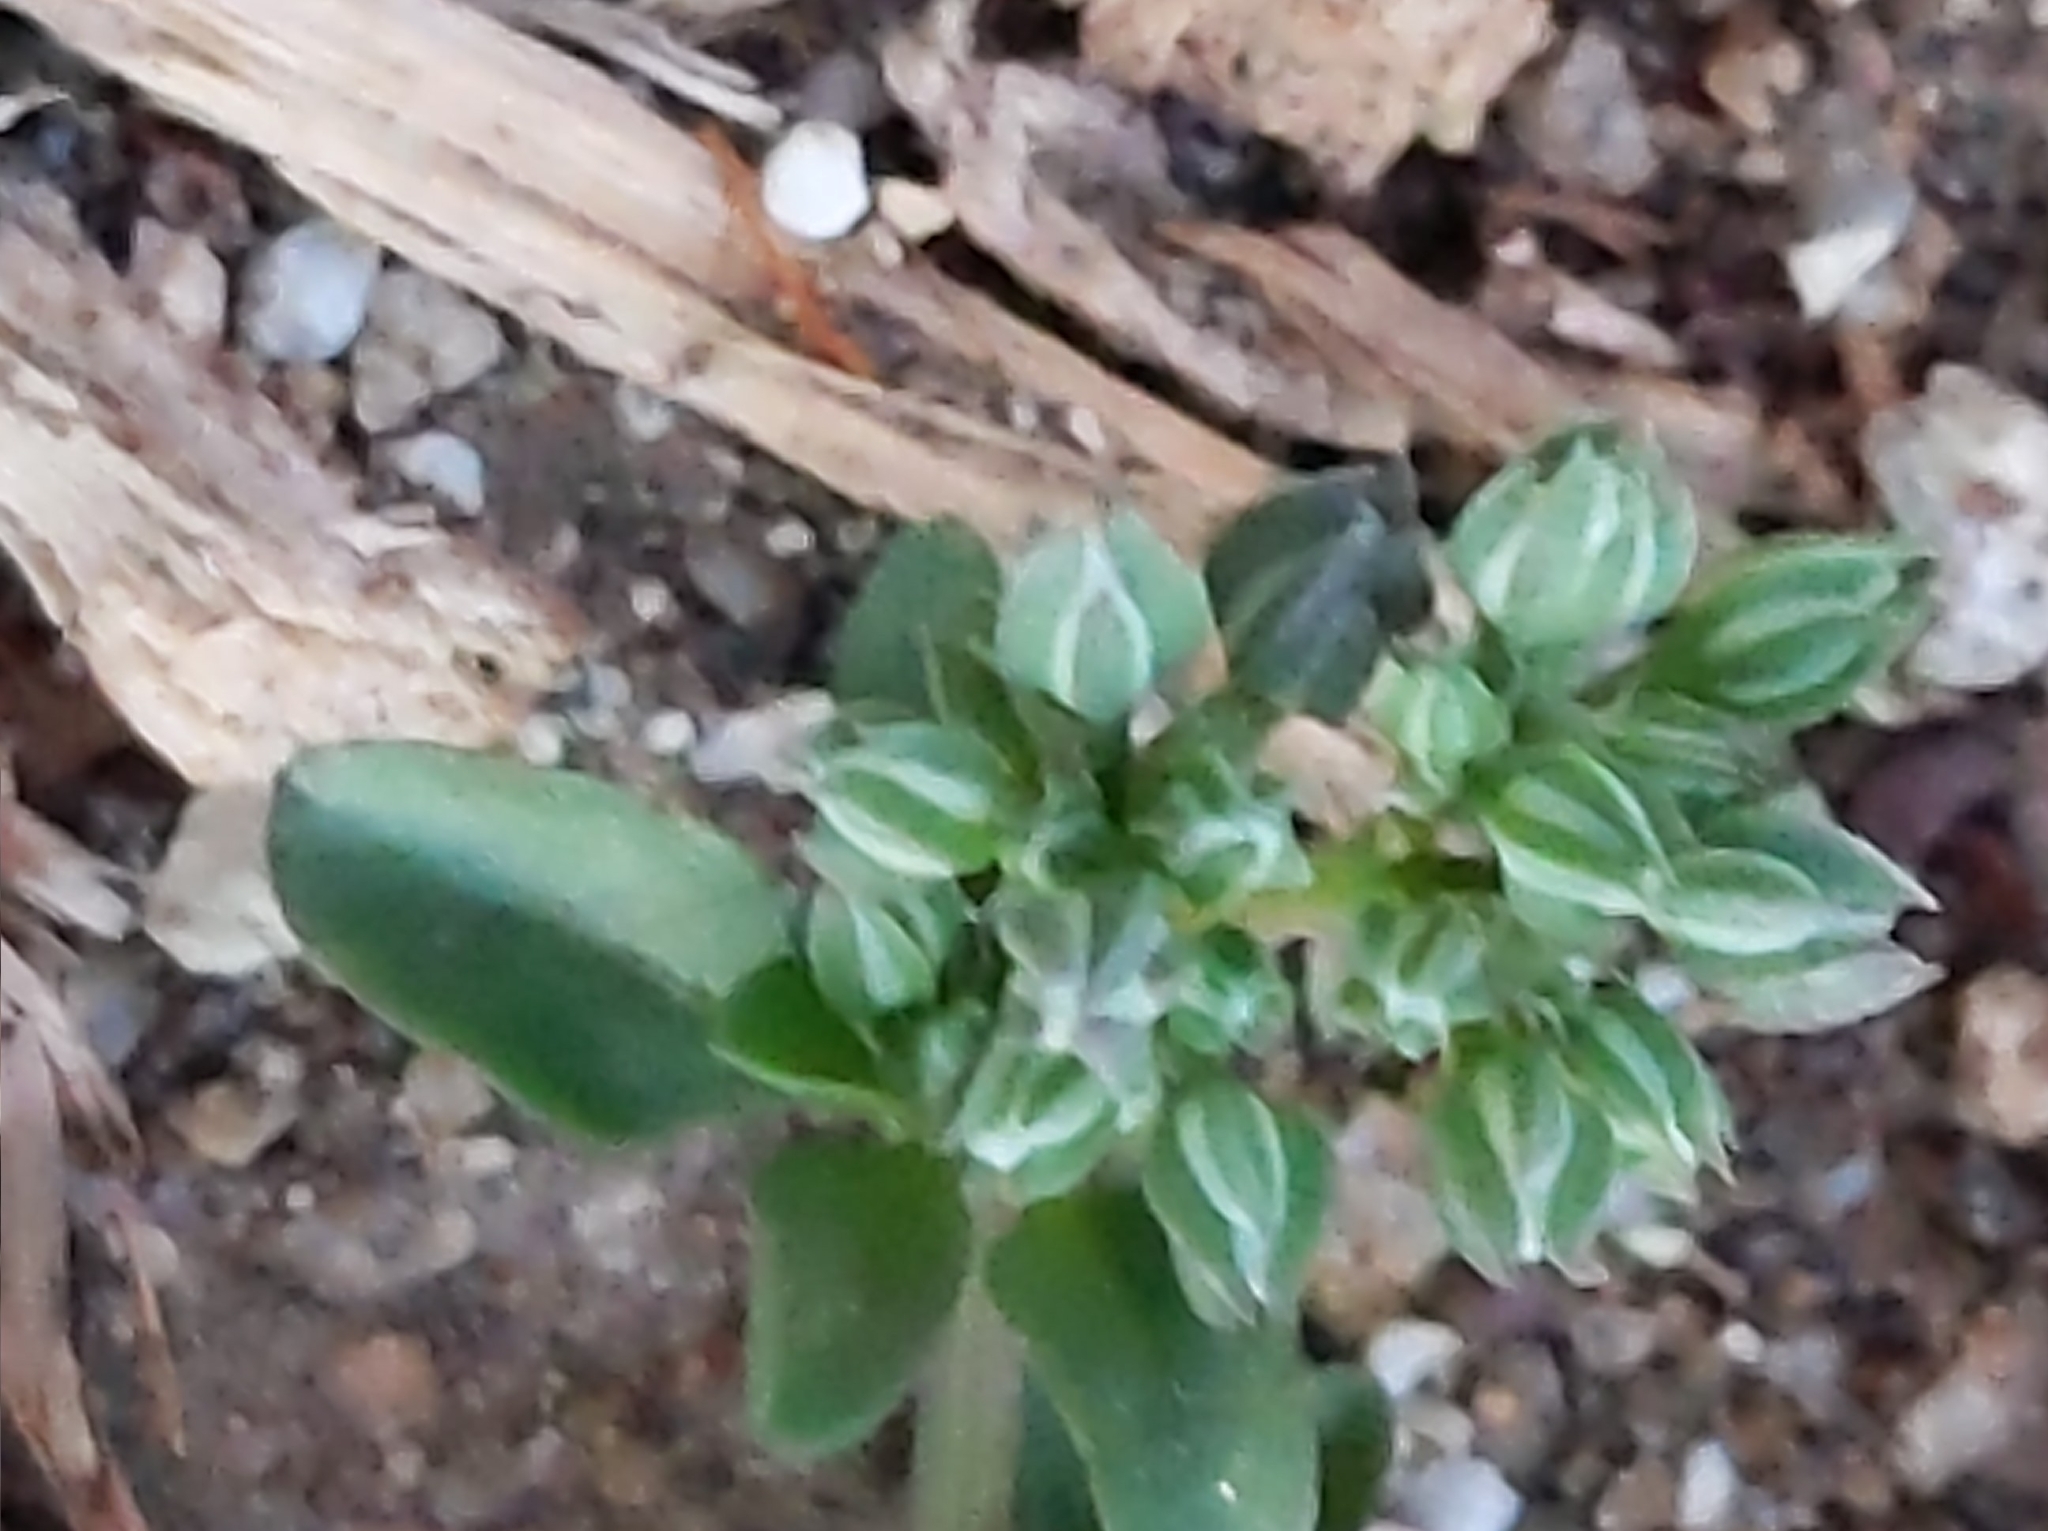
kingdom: Plantae
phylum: Tracheophyta
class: Magnoliopsida
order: Caryophyllales
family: Caryophyllaceae
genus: Polycarpon
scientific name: Polycarpon tetraphyllum
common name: Four-leaved all-seed
